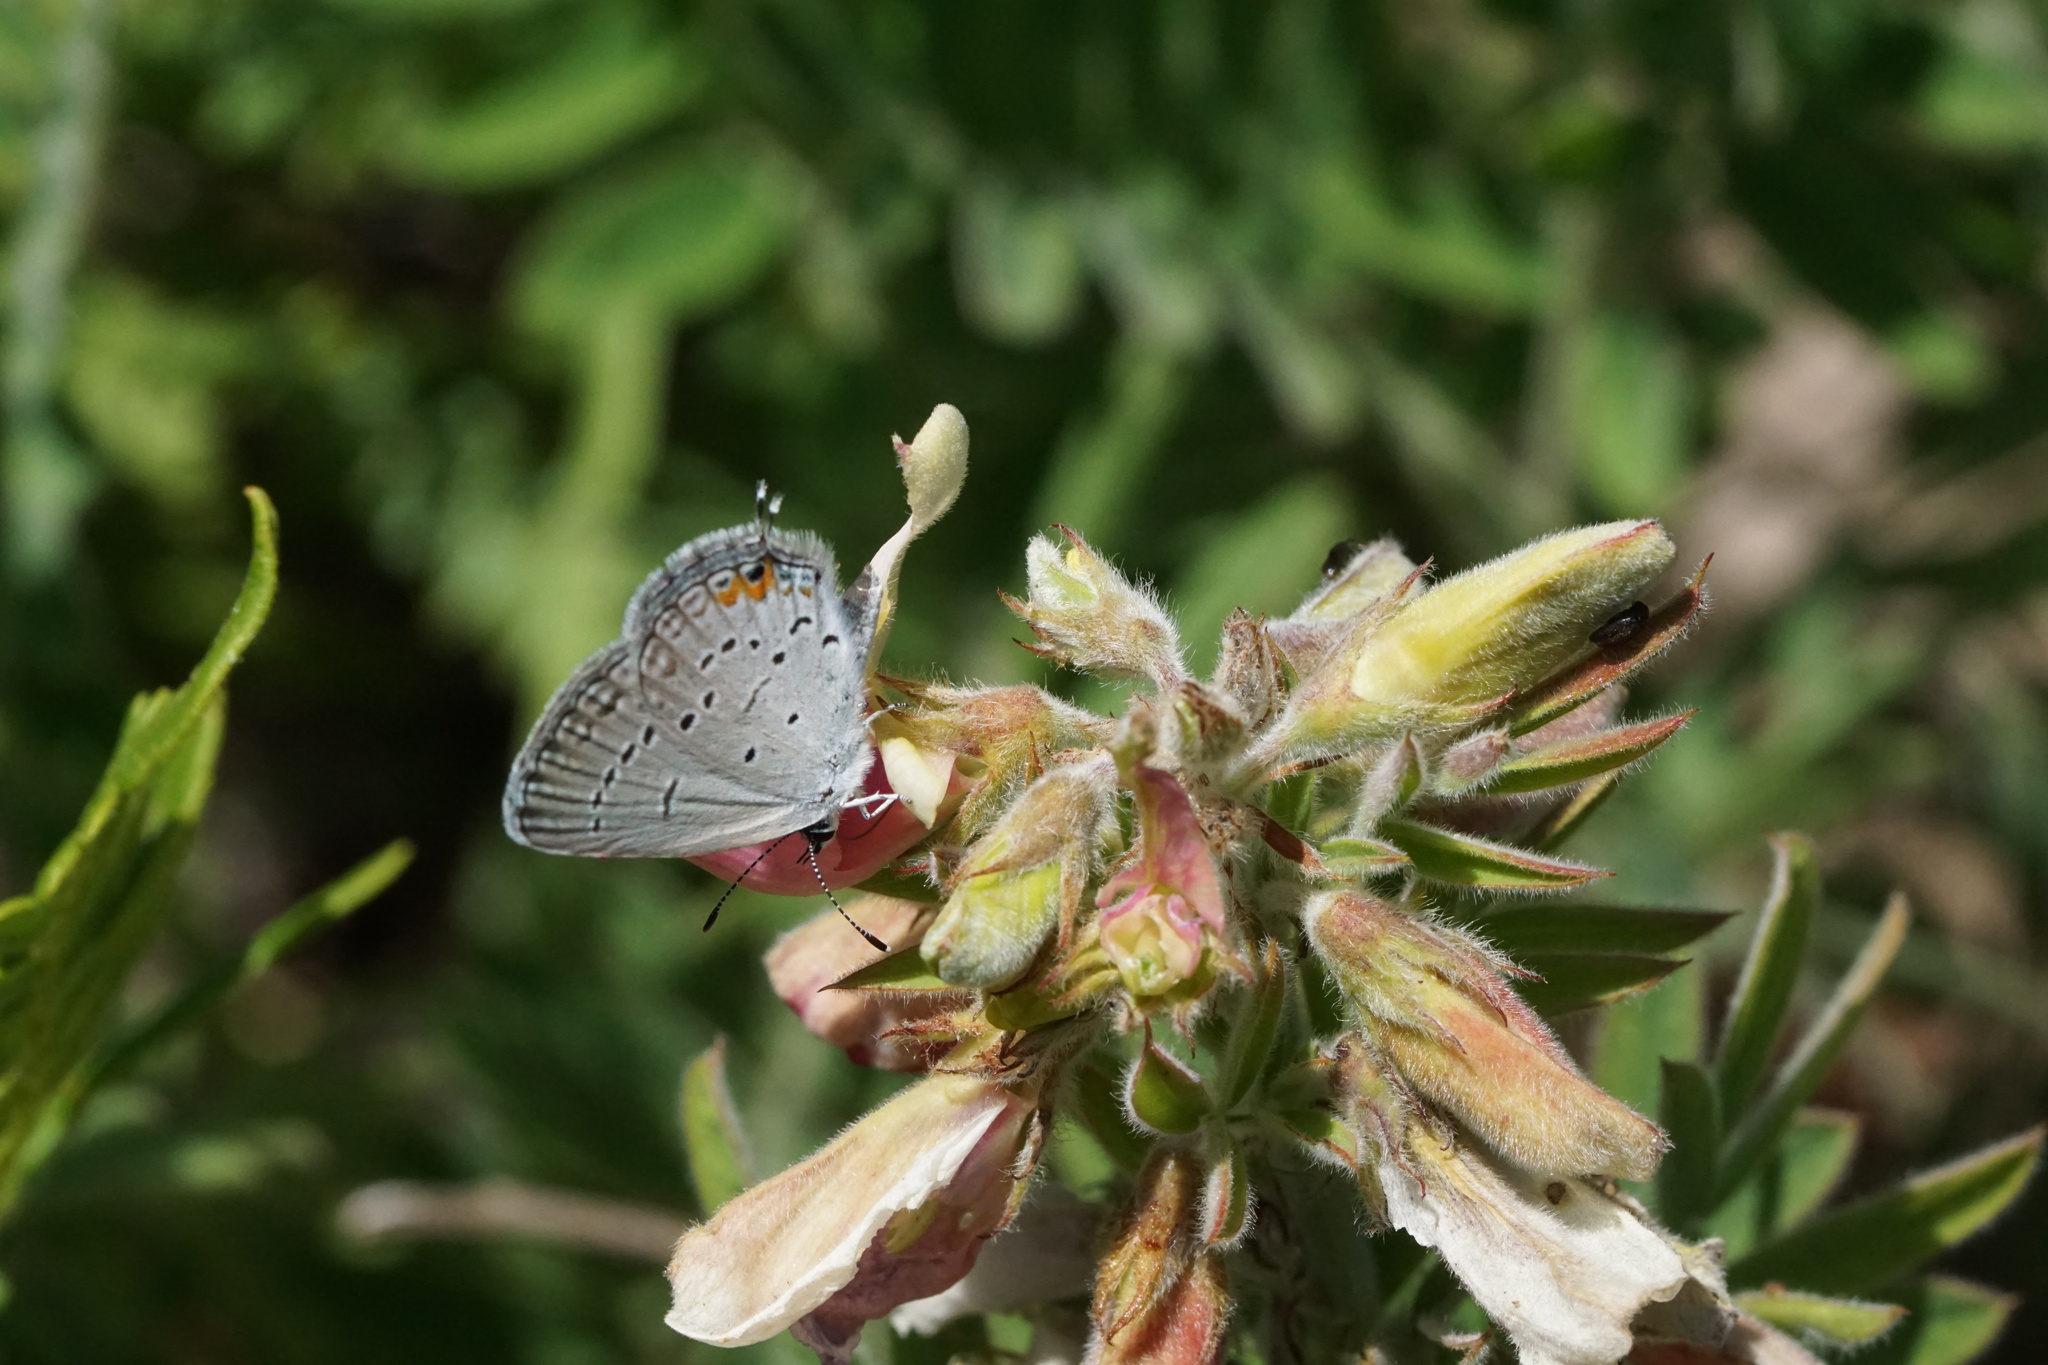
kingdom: Animalia
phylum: Arthropoda
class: Insecta
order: Lepidoptera
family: Lycaenidae
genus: Elkalyce
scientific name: Elkalyce comyntas
